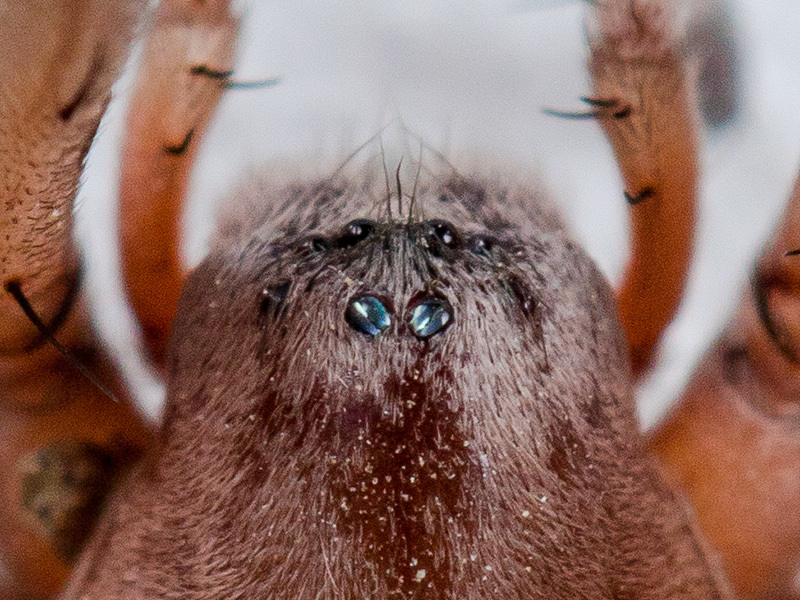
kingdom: Animalia
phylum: Arthropoda
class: Arachnida
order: Araneae
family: Gnaphosidae
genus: Sidydrassus
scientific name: Sidydrassus tianschanicus
